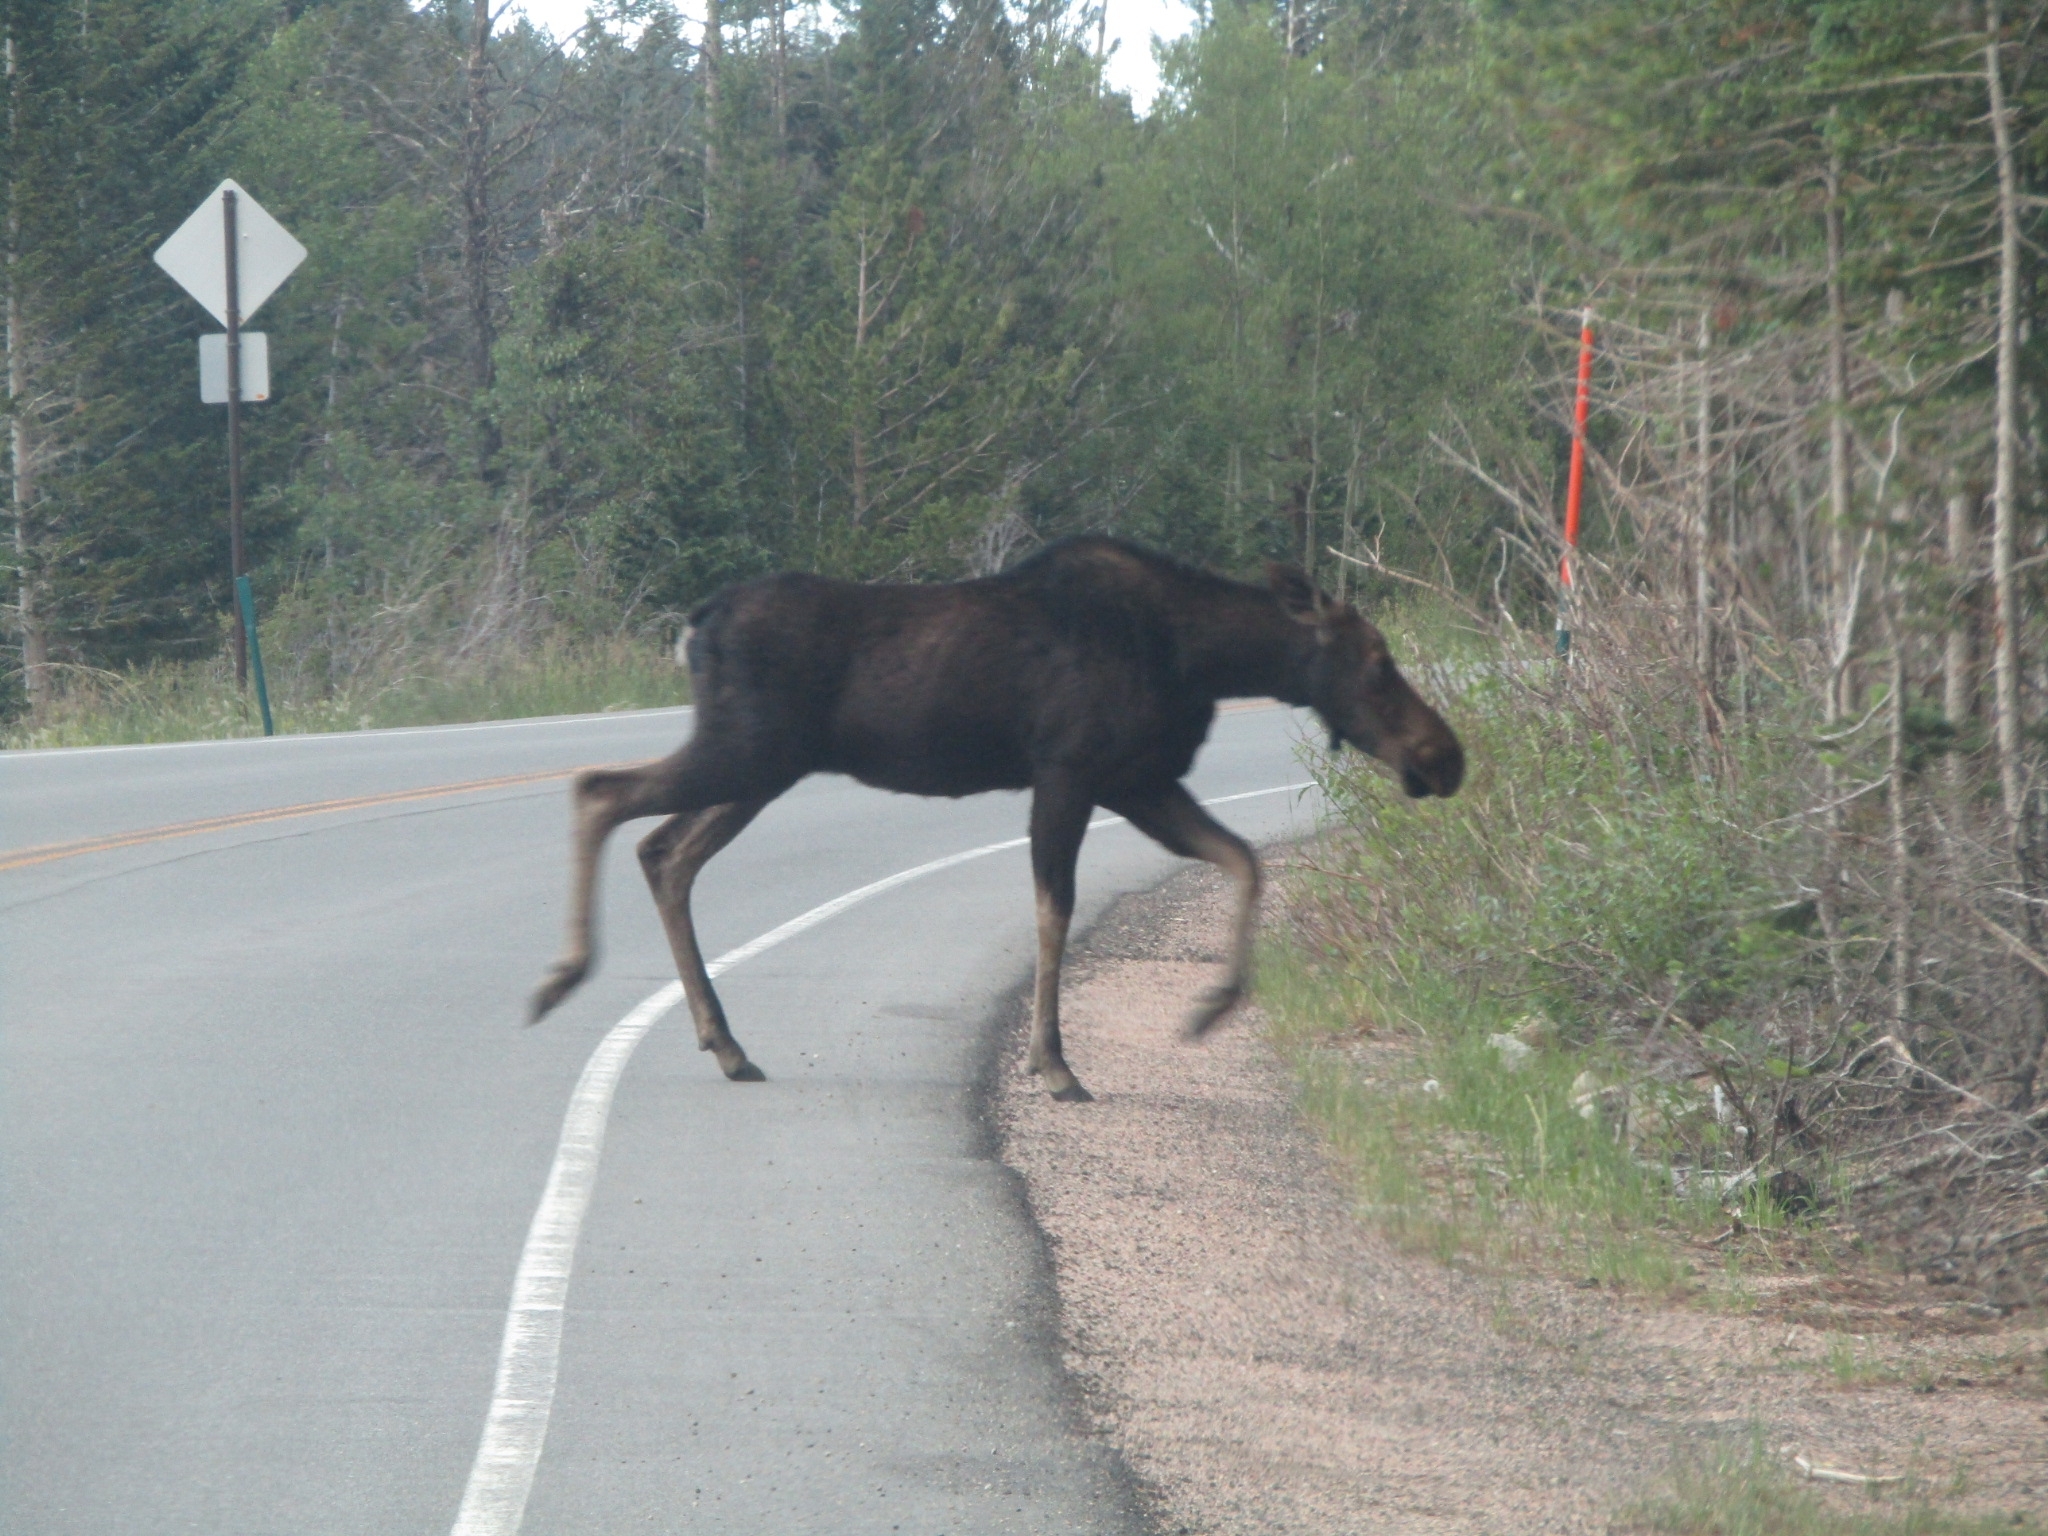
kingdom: Animalia
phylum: Chordata
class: Mammalia
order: Artiodactyla
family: Cervidae
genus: Alces
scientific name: Alces americanus
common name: Moose
